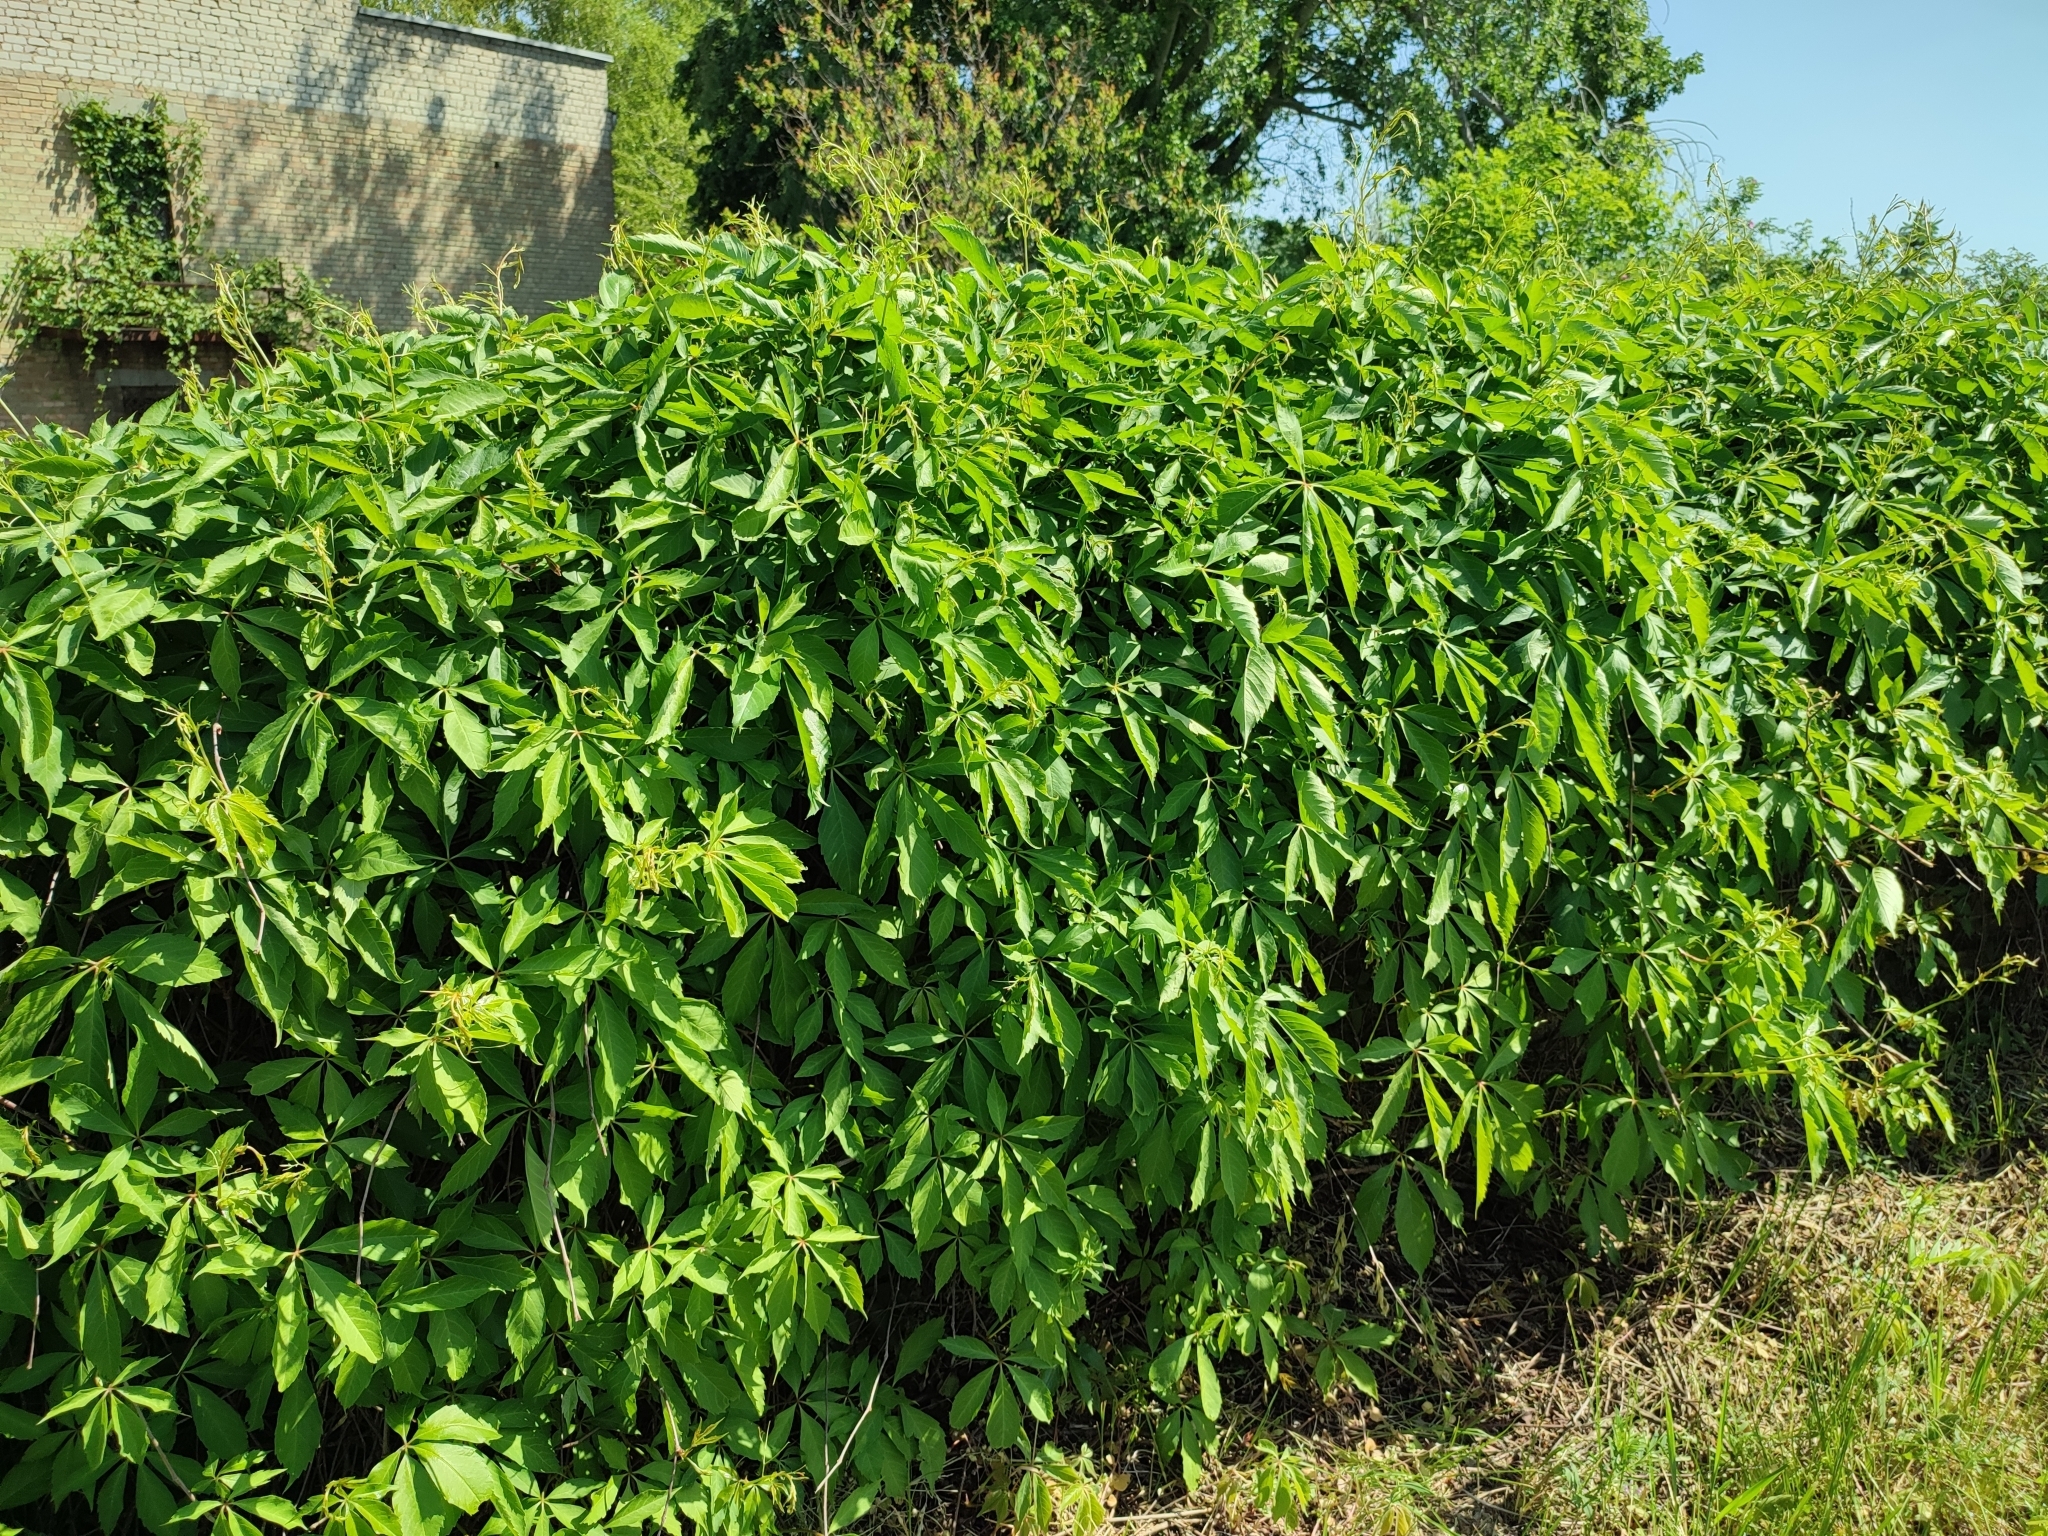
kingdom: Plantae
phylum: Tracheophyta
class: Magnoliopsida
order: Vitales
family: Vitaceae
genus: Parthenocissus
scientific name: Parthenocissus inserta
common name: False virginia-creeper
